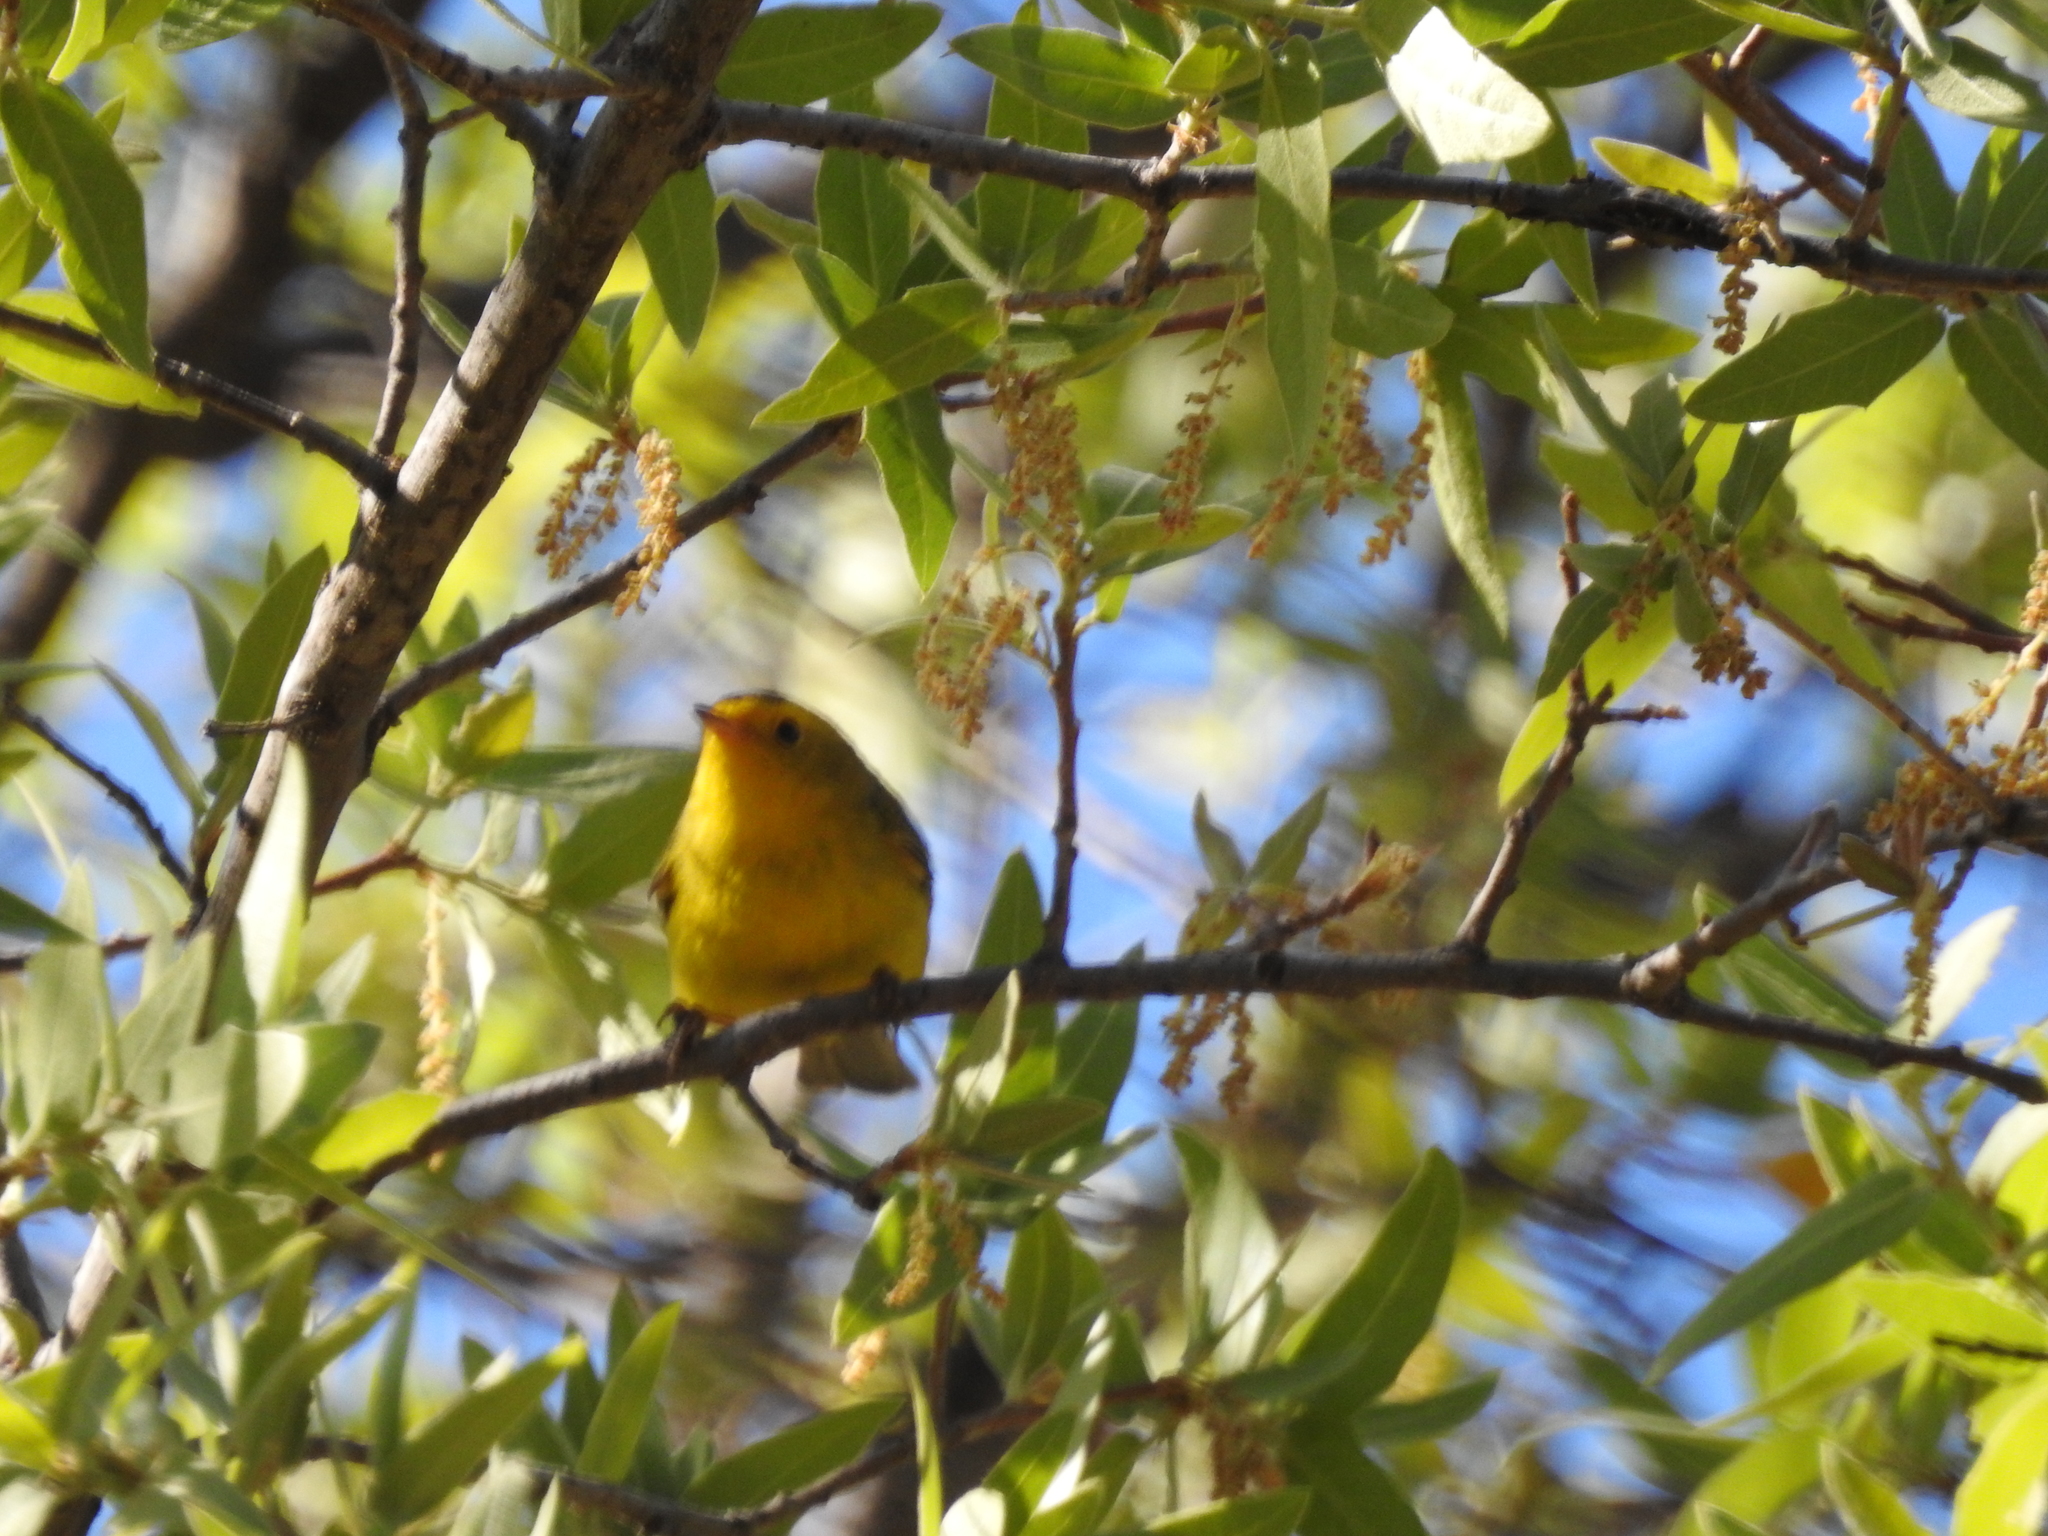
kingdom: Animalia
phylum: Chordata
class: Aves
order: Passeriformes
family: Parulidae
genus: Cardellina
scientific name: Cardellina pusilla
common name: Wilson's warbler
